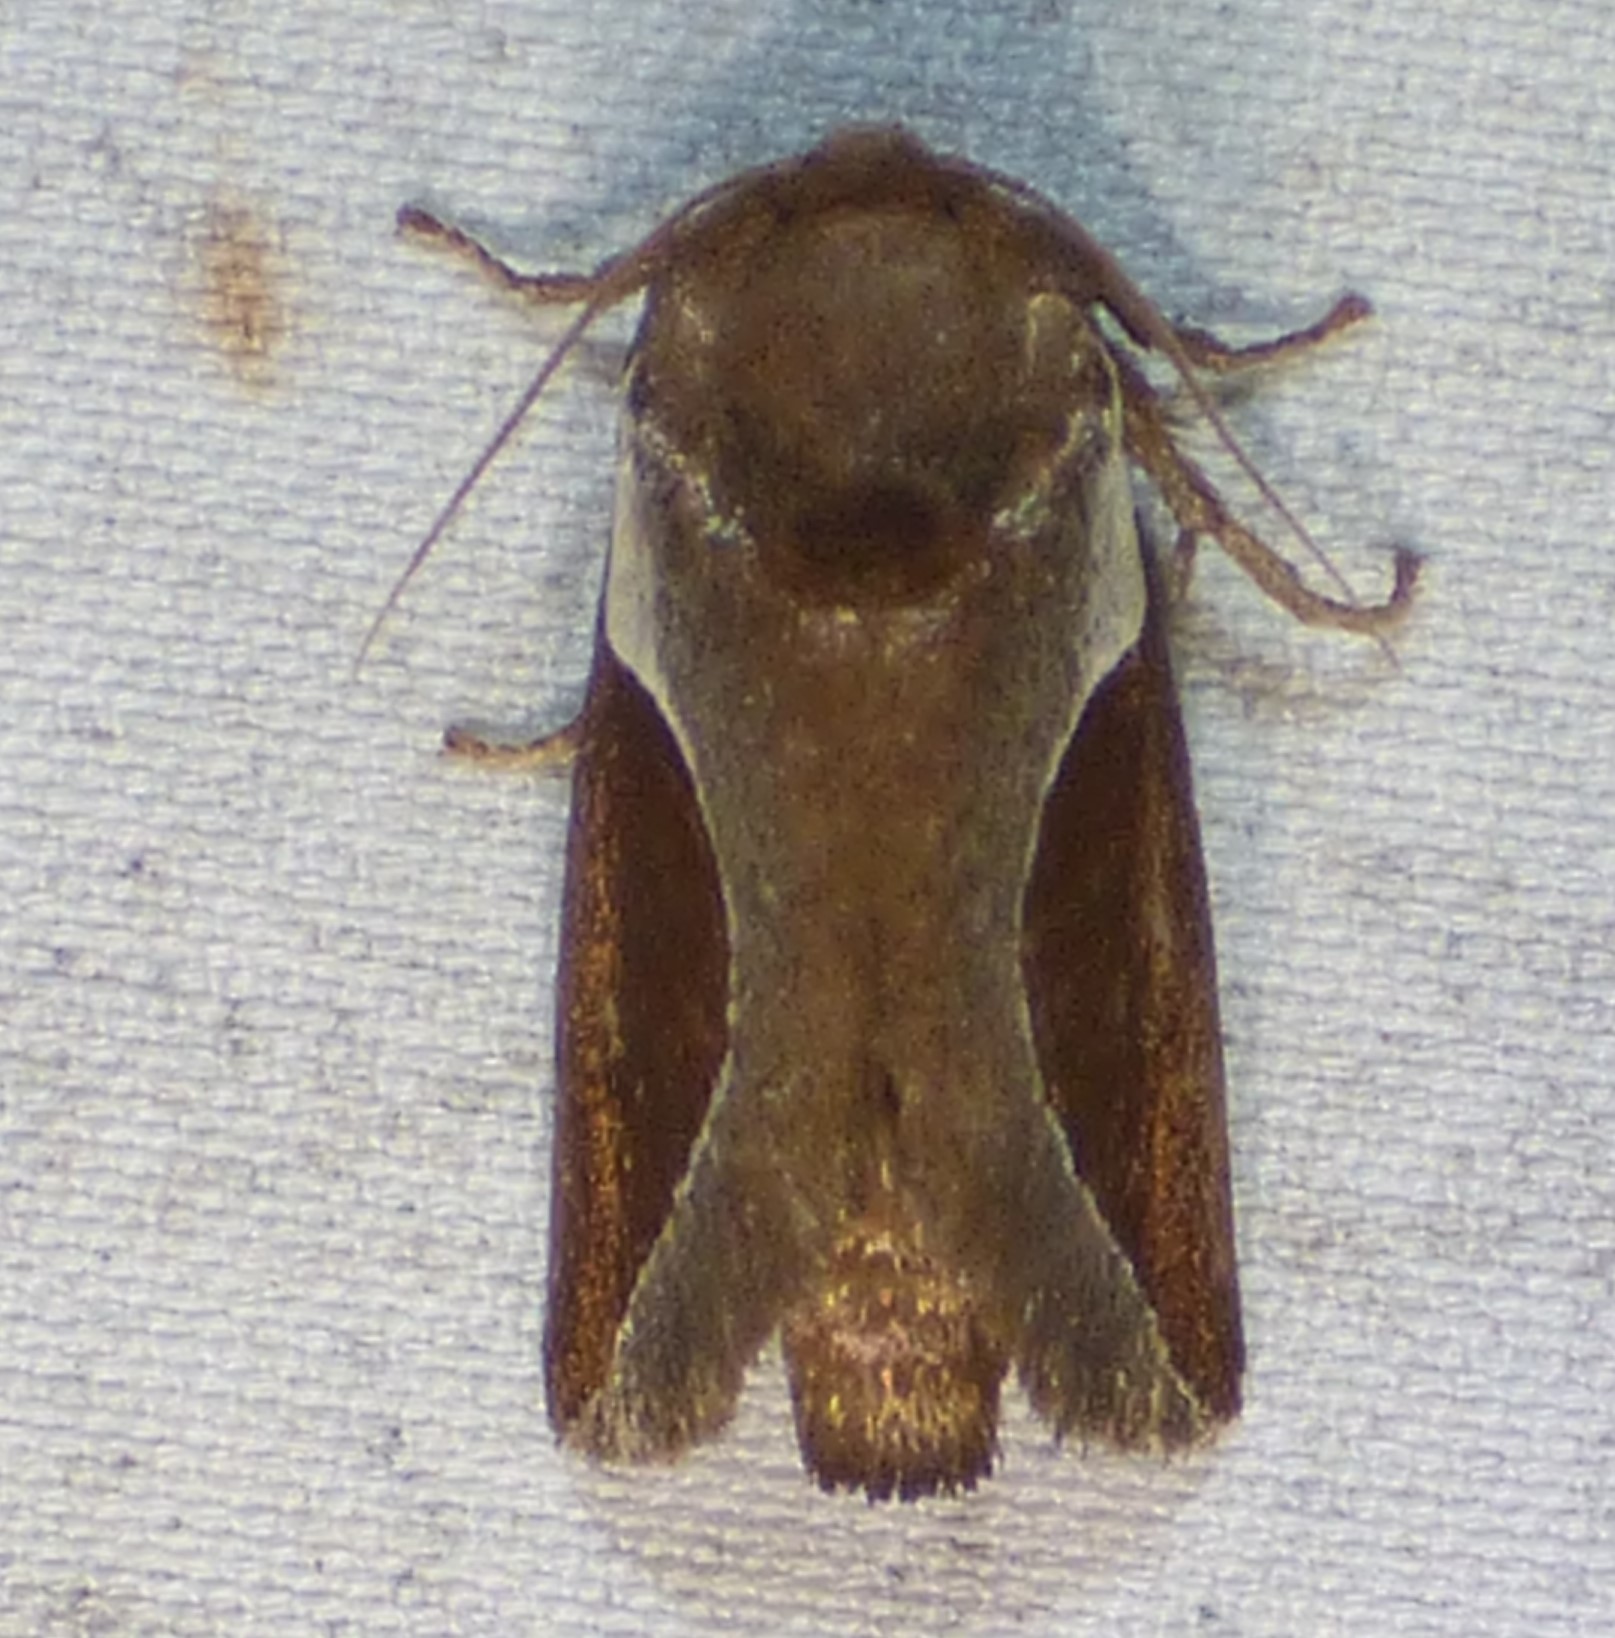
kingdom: Animalia
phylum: Arthropoda
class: Insecta
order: Lepidoptera
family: Limacodidae
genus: Prolimacodes
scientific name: Prolimacodes badia
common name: Skiff moth
